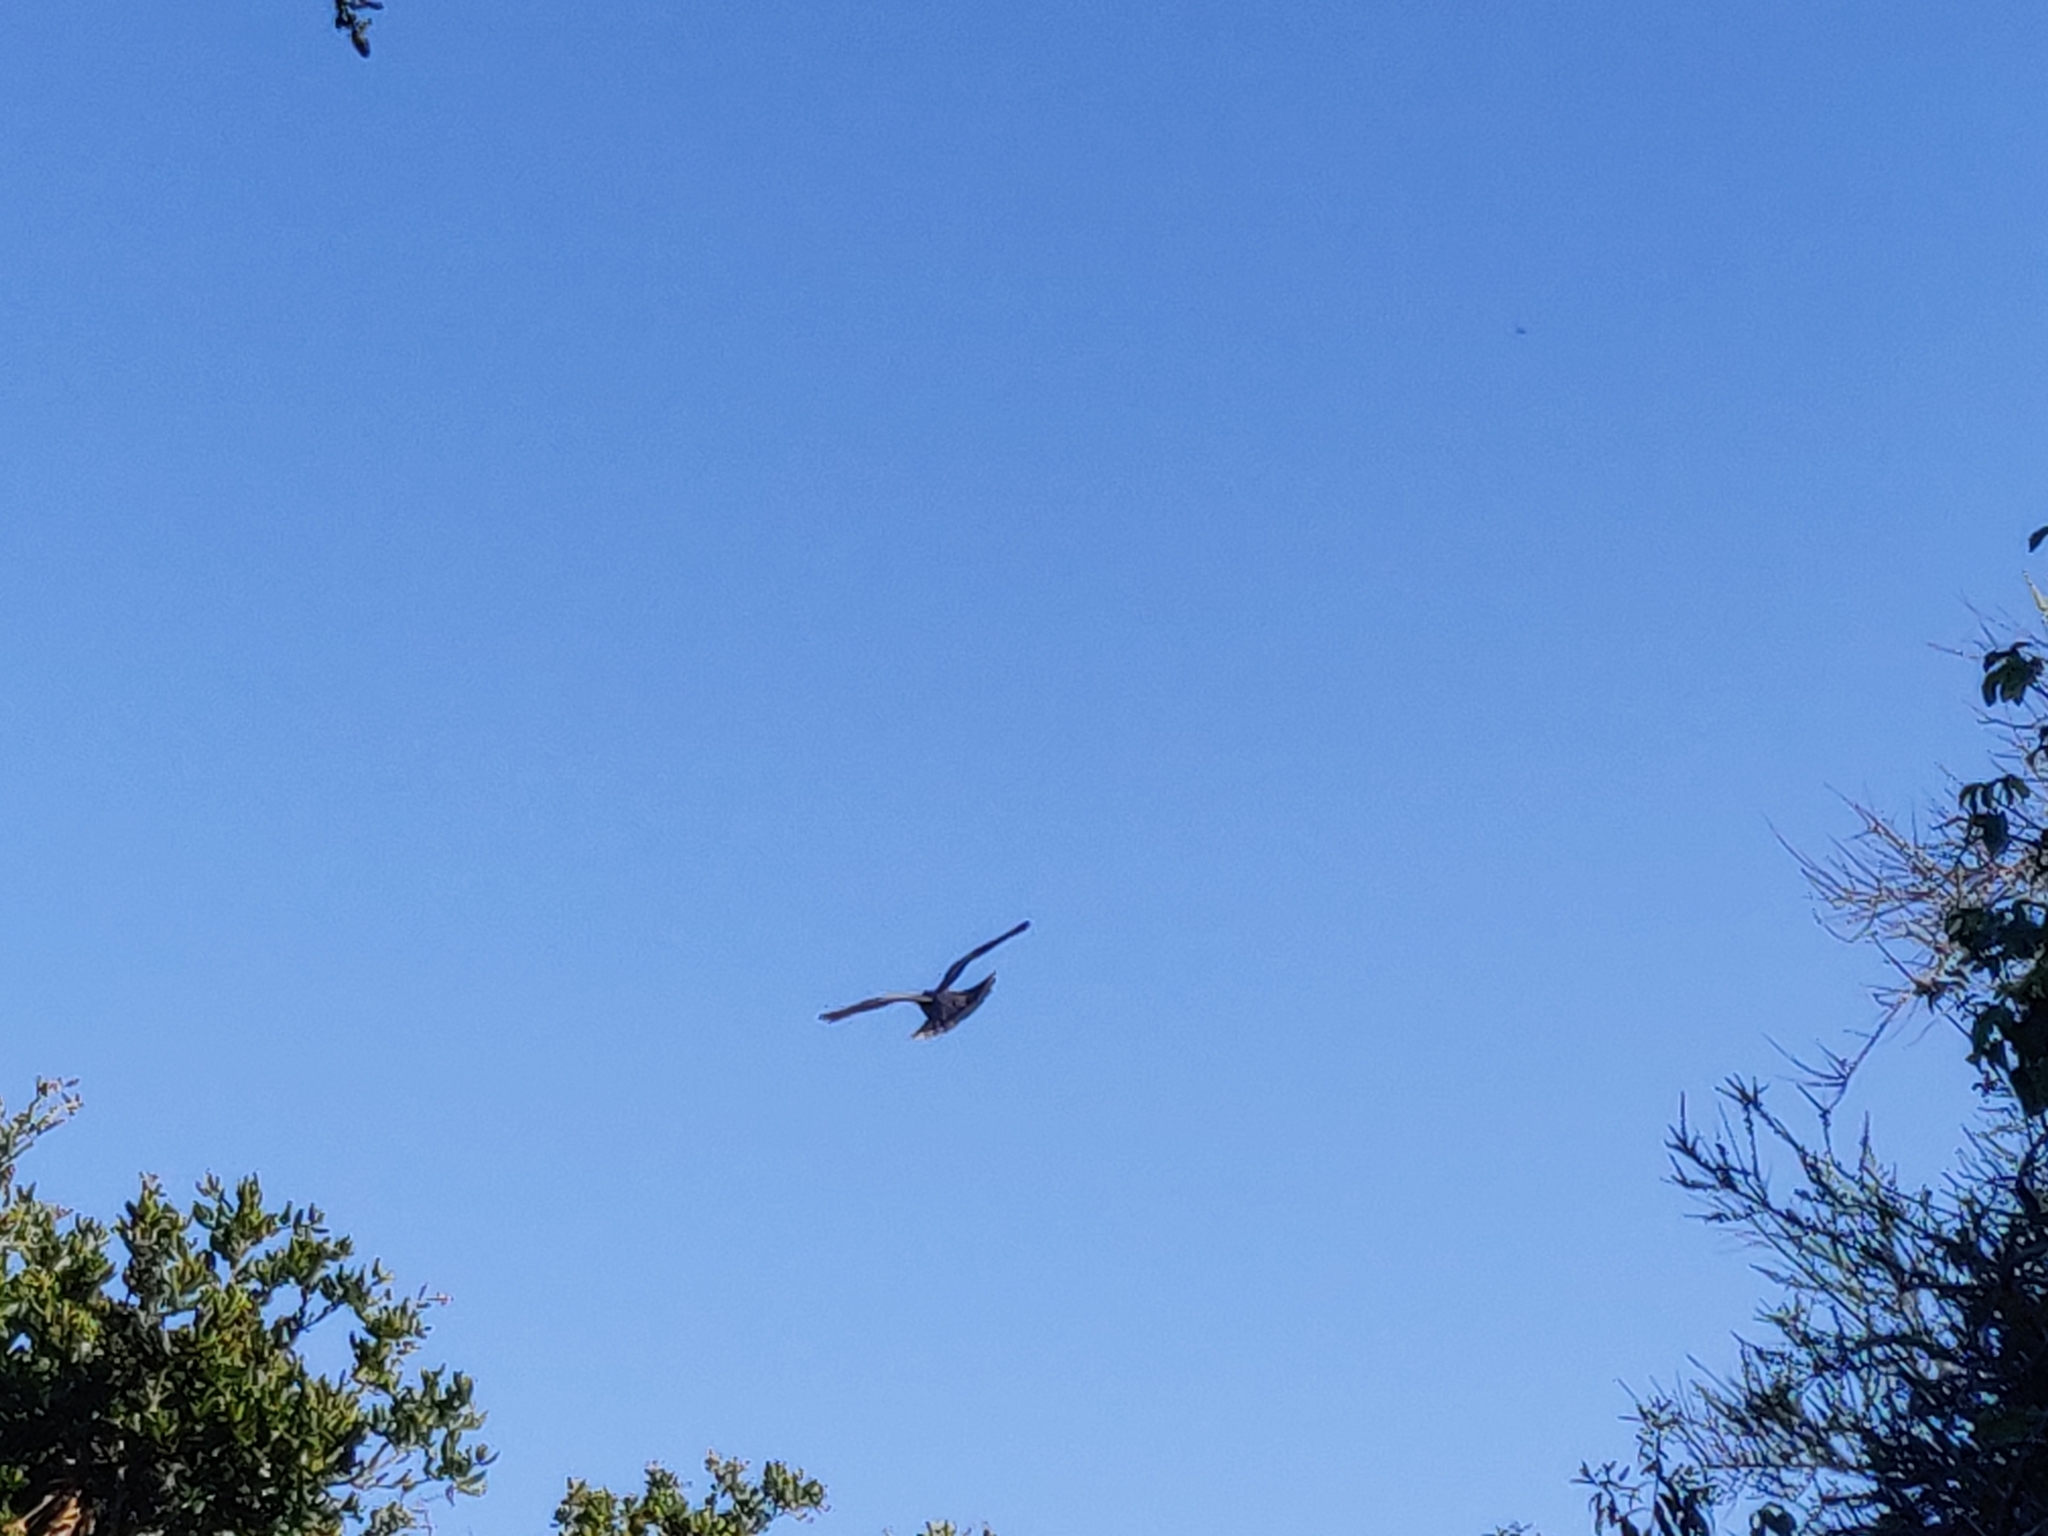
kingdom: Animalia
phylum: Chordata
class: Aves
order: Columbiformes
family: Columbidae
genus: Patagioenas
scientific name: Patagioenas fasciata
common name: Band-tailed pigeon
